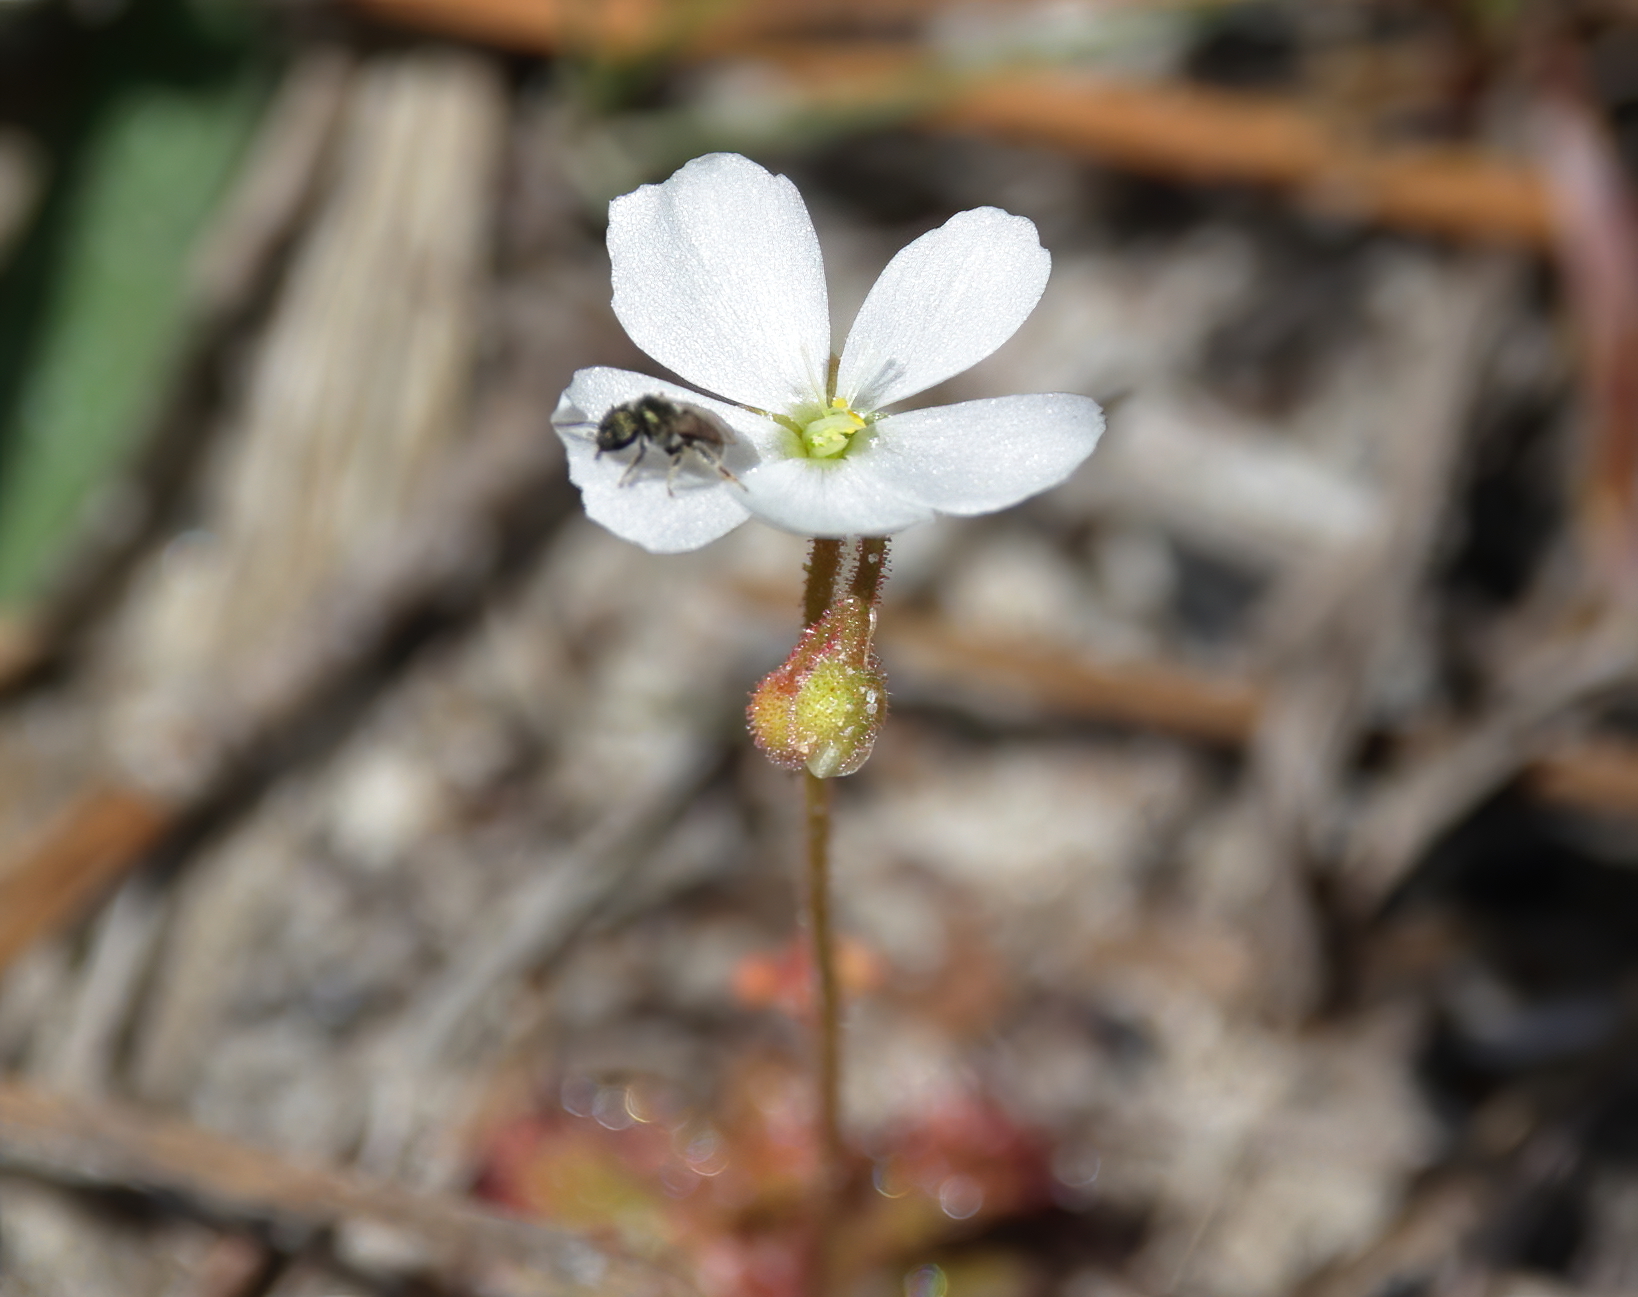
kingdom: Plantae
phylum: Tracheophyta
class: Magnoliopsida
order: Caryophyllales
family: Droseraceae
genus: Drosera
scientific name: Drosera brevifolia
